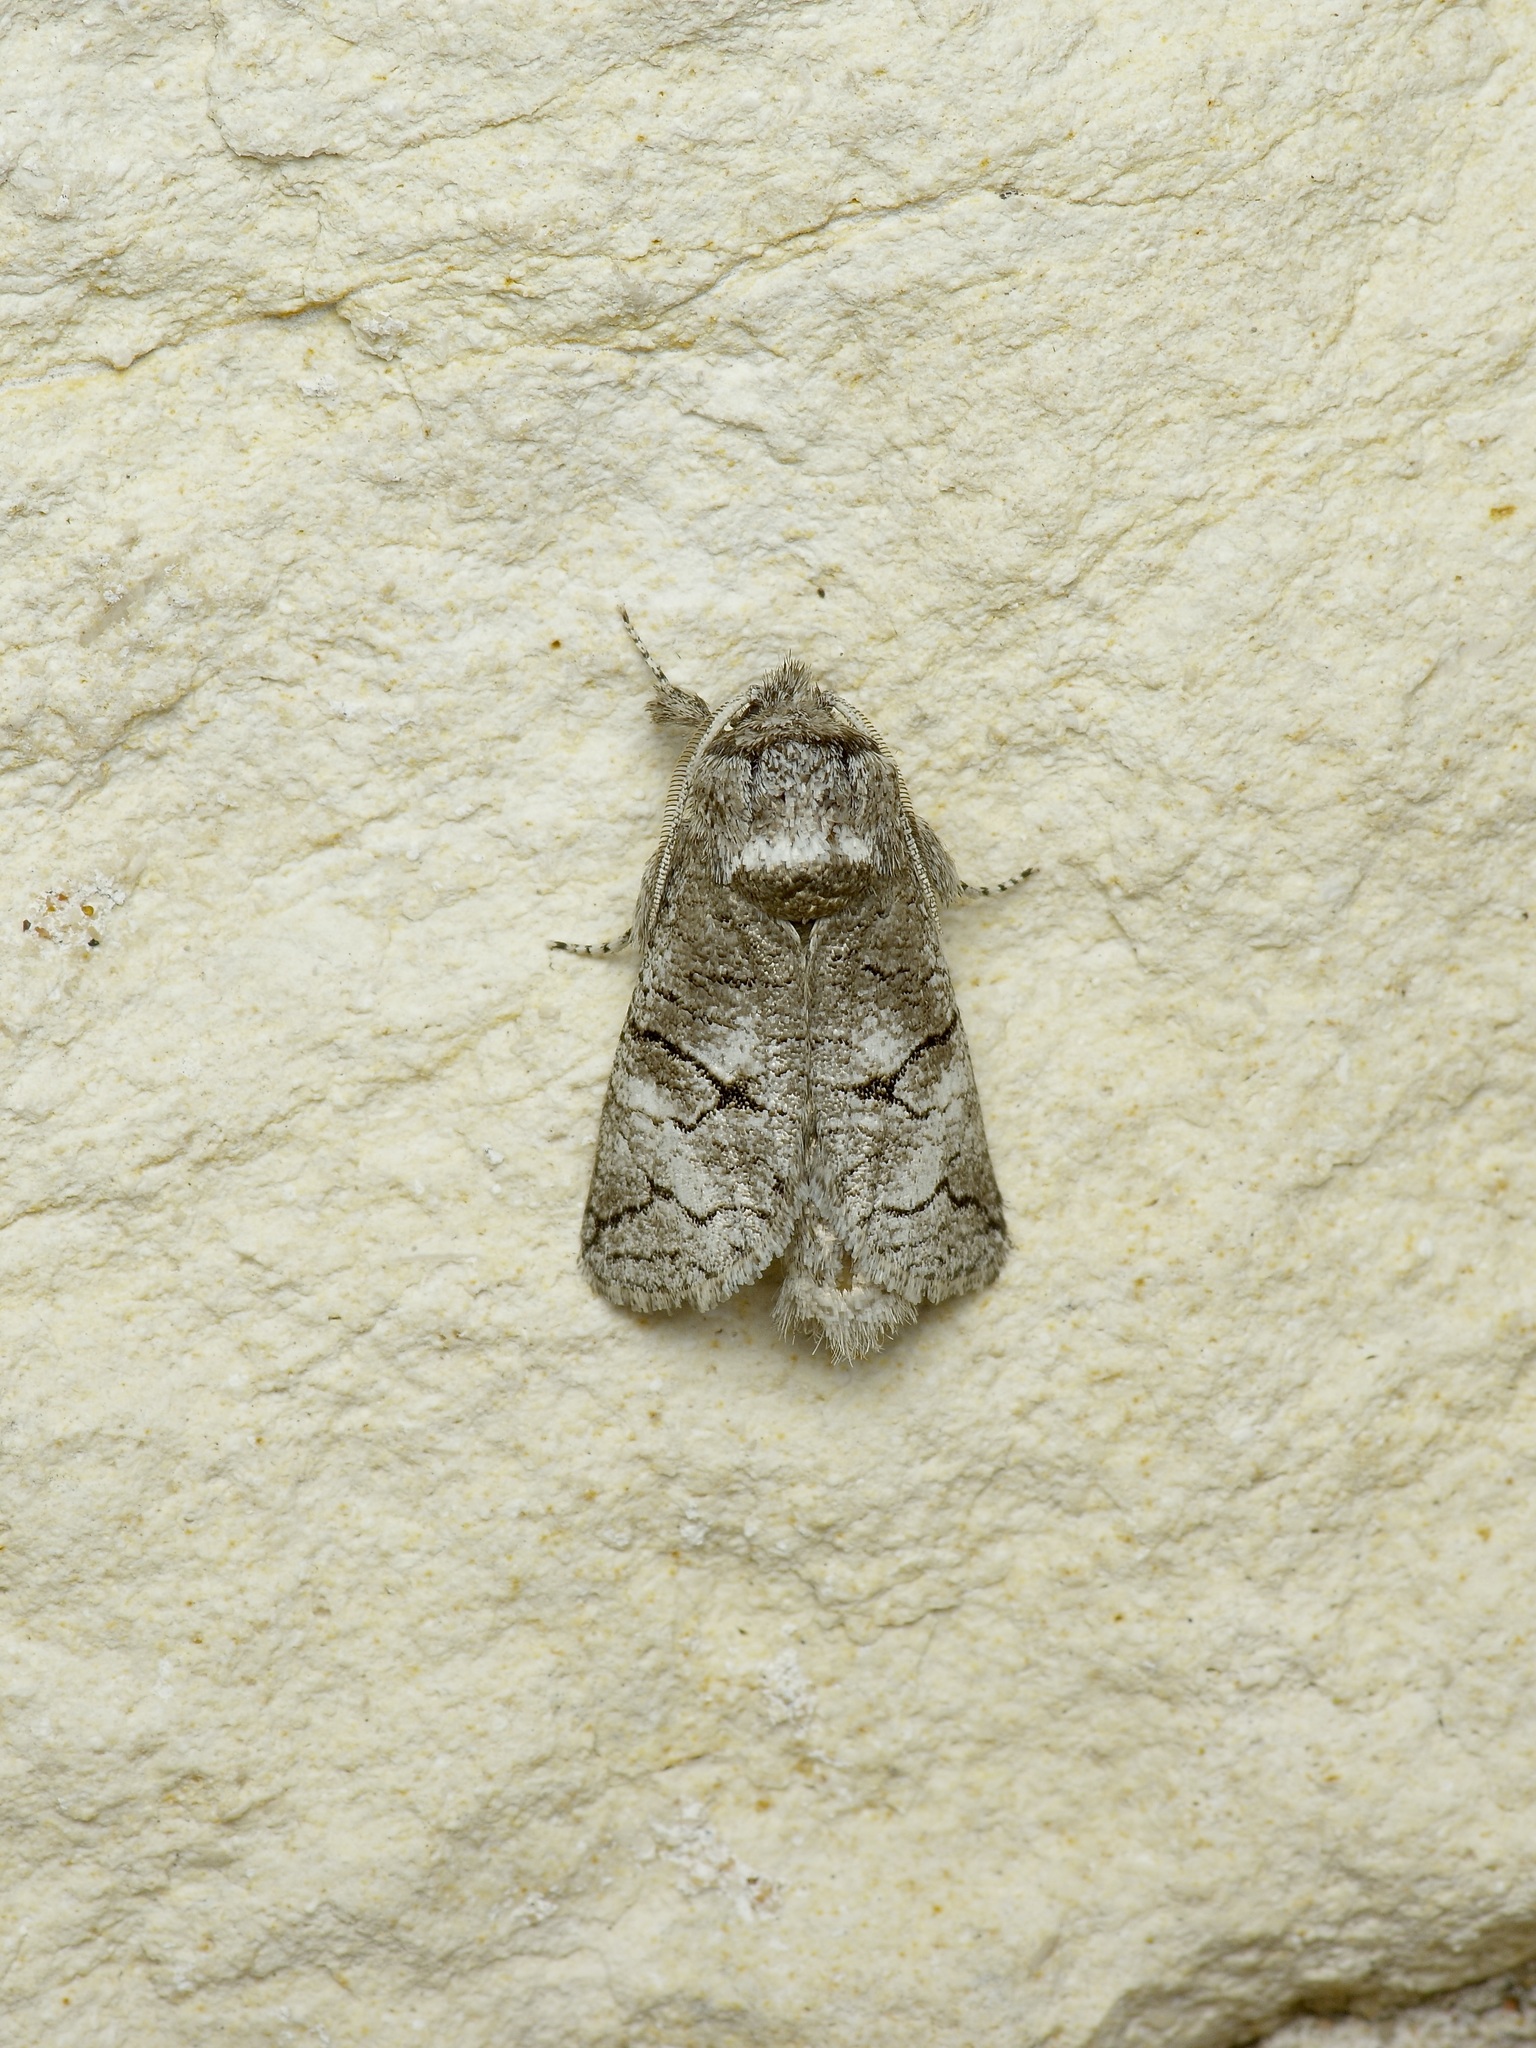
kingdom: Animalia
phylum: Arthropoda
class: Insecta
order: Lepidoptera
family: Cossidae
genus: Fania
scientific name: Fania nanus
